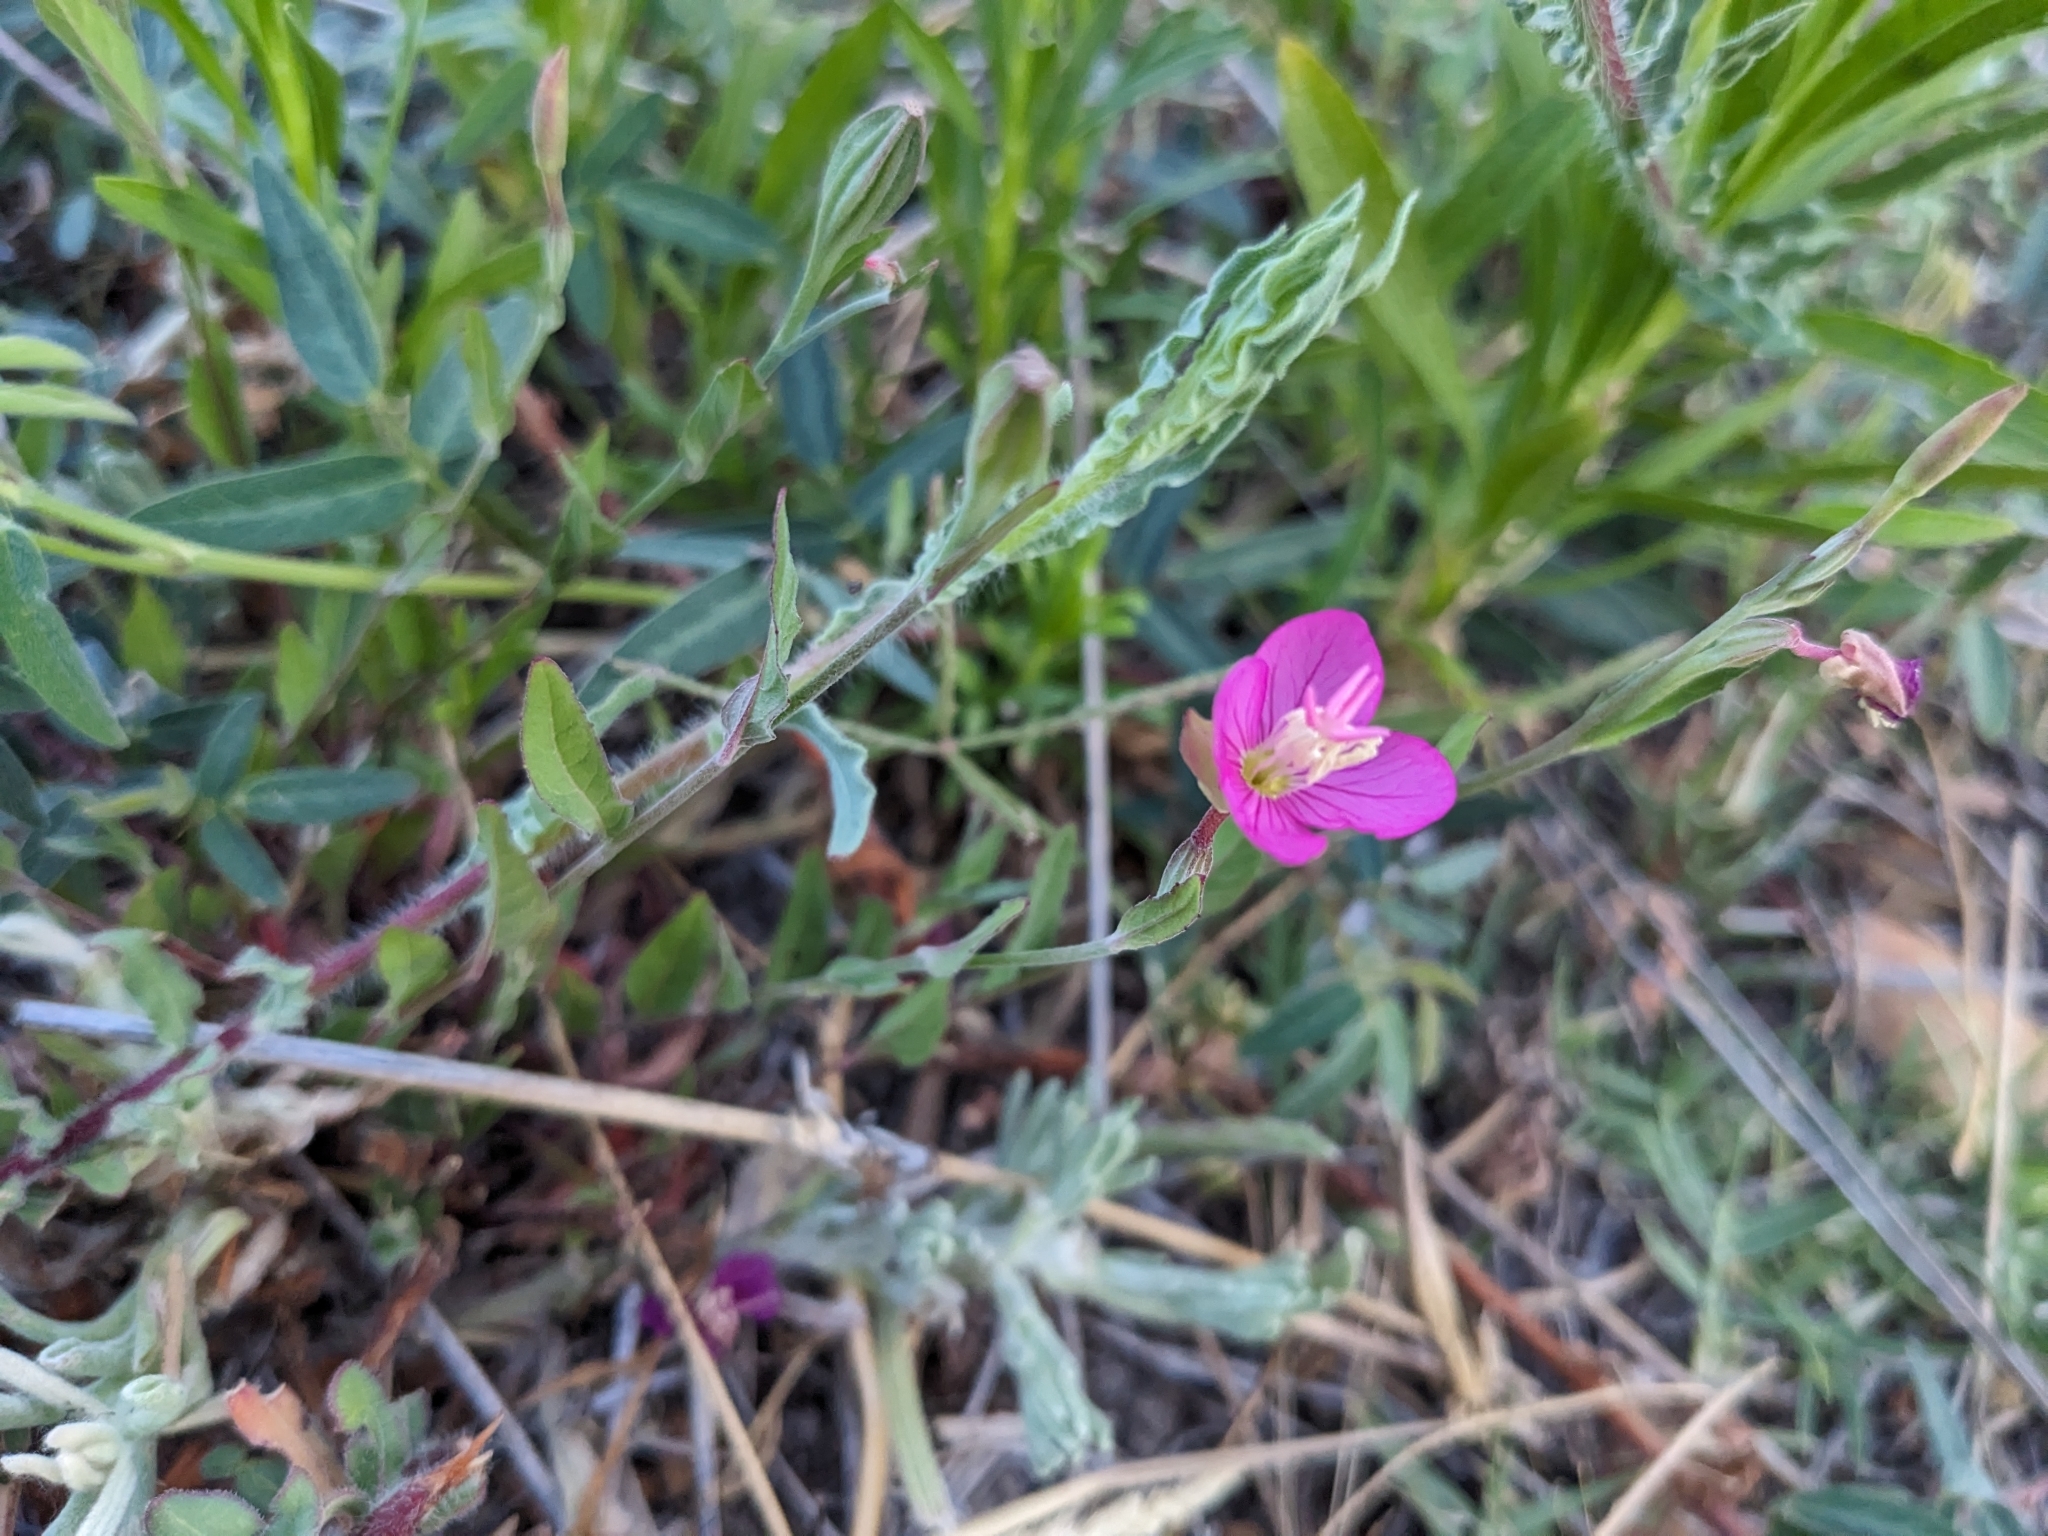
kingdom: Plantae
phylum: Tracheophyta
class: Magnoliopsida
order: Myrtales
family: Onagraceae
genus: Oenothera
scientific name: Oenothera rosea
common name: Rosy evening-primrose
